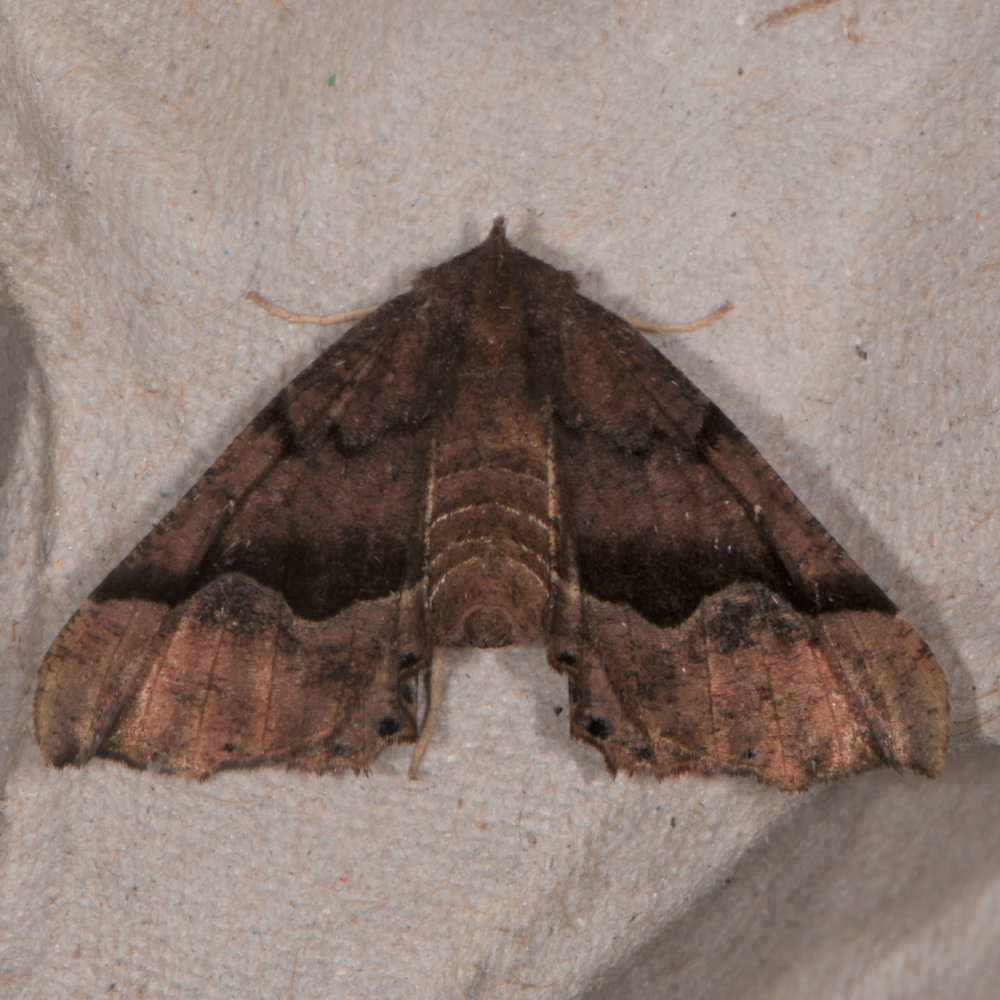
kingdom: Animalia
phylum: Arthropoda
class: Insecta
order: Lepidoptera
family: Geometridae
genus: Pero
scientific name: Pero ancetaria
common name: Hübner's pero
